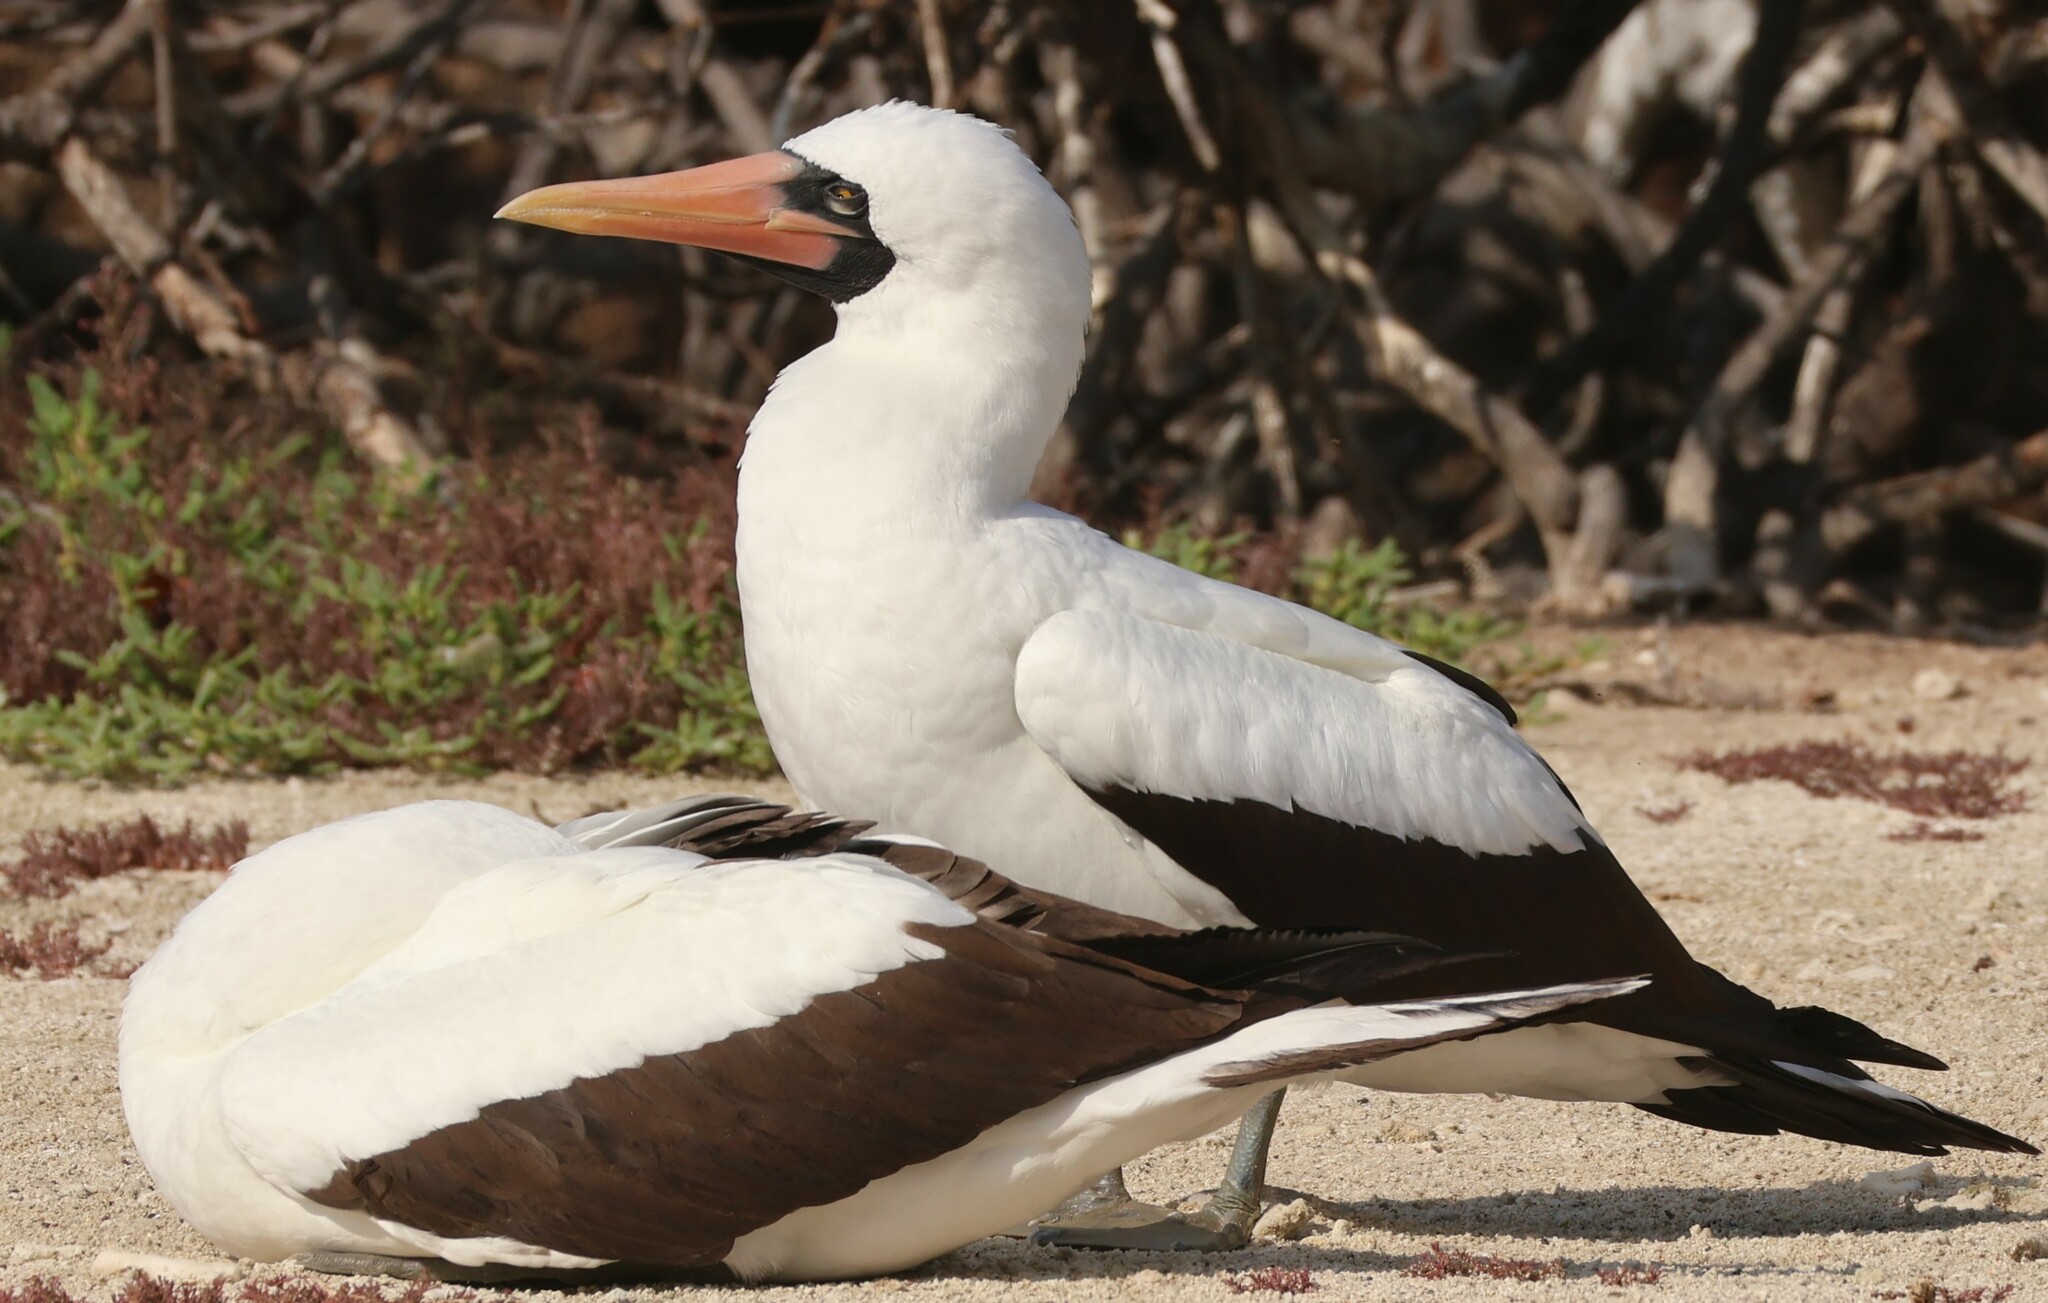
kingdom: Animalia
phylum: Chordata
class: Aves
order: Suliformes
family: Sulidae
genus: Sula
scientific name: Sula granti
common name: Nazca booby
